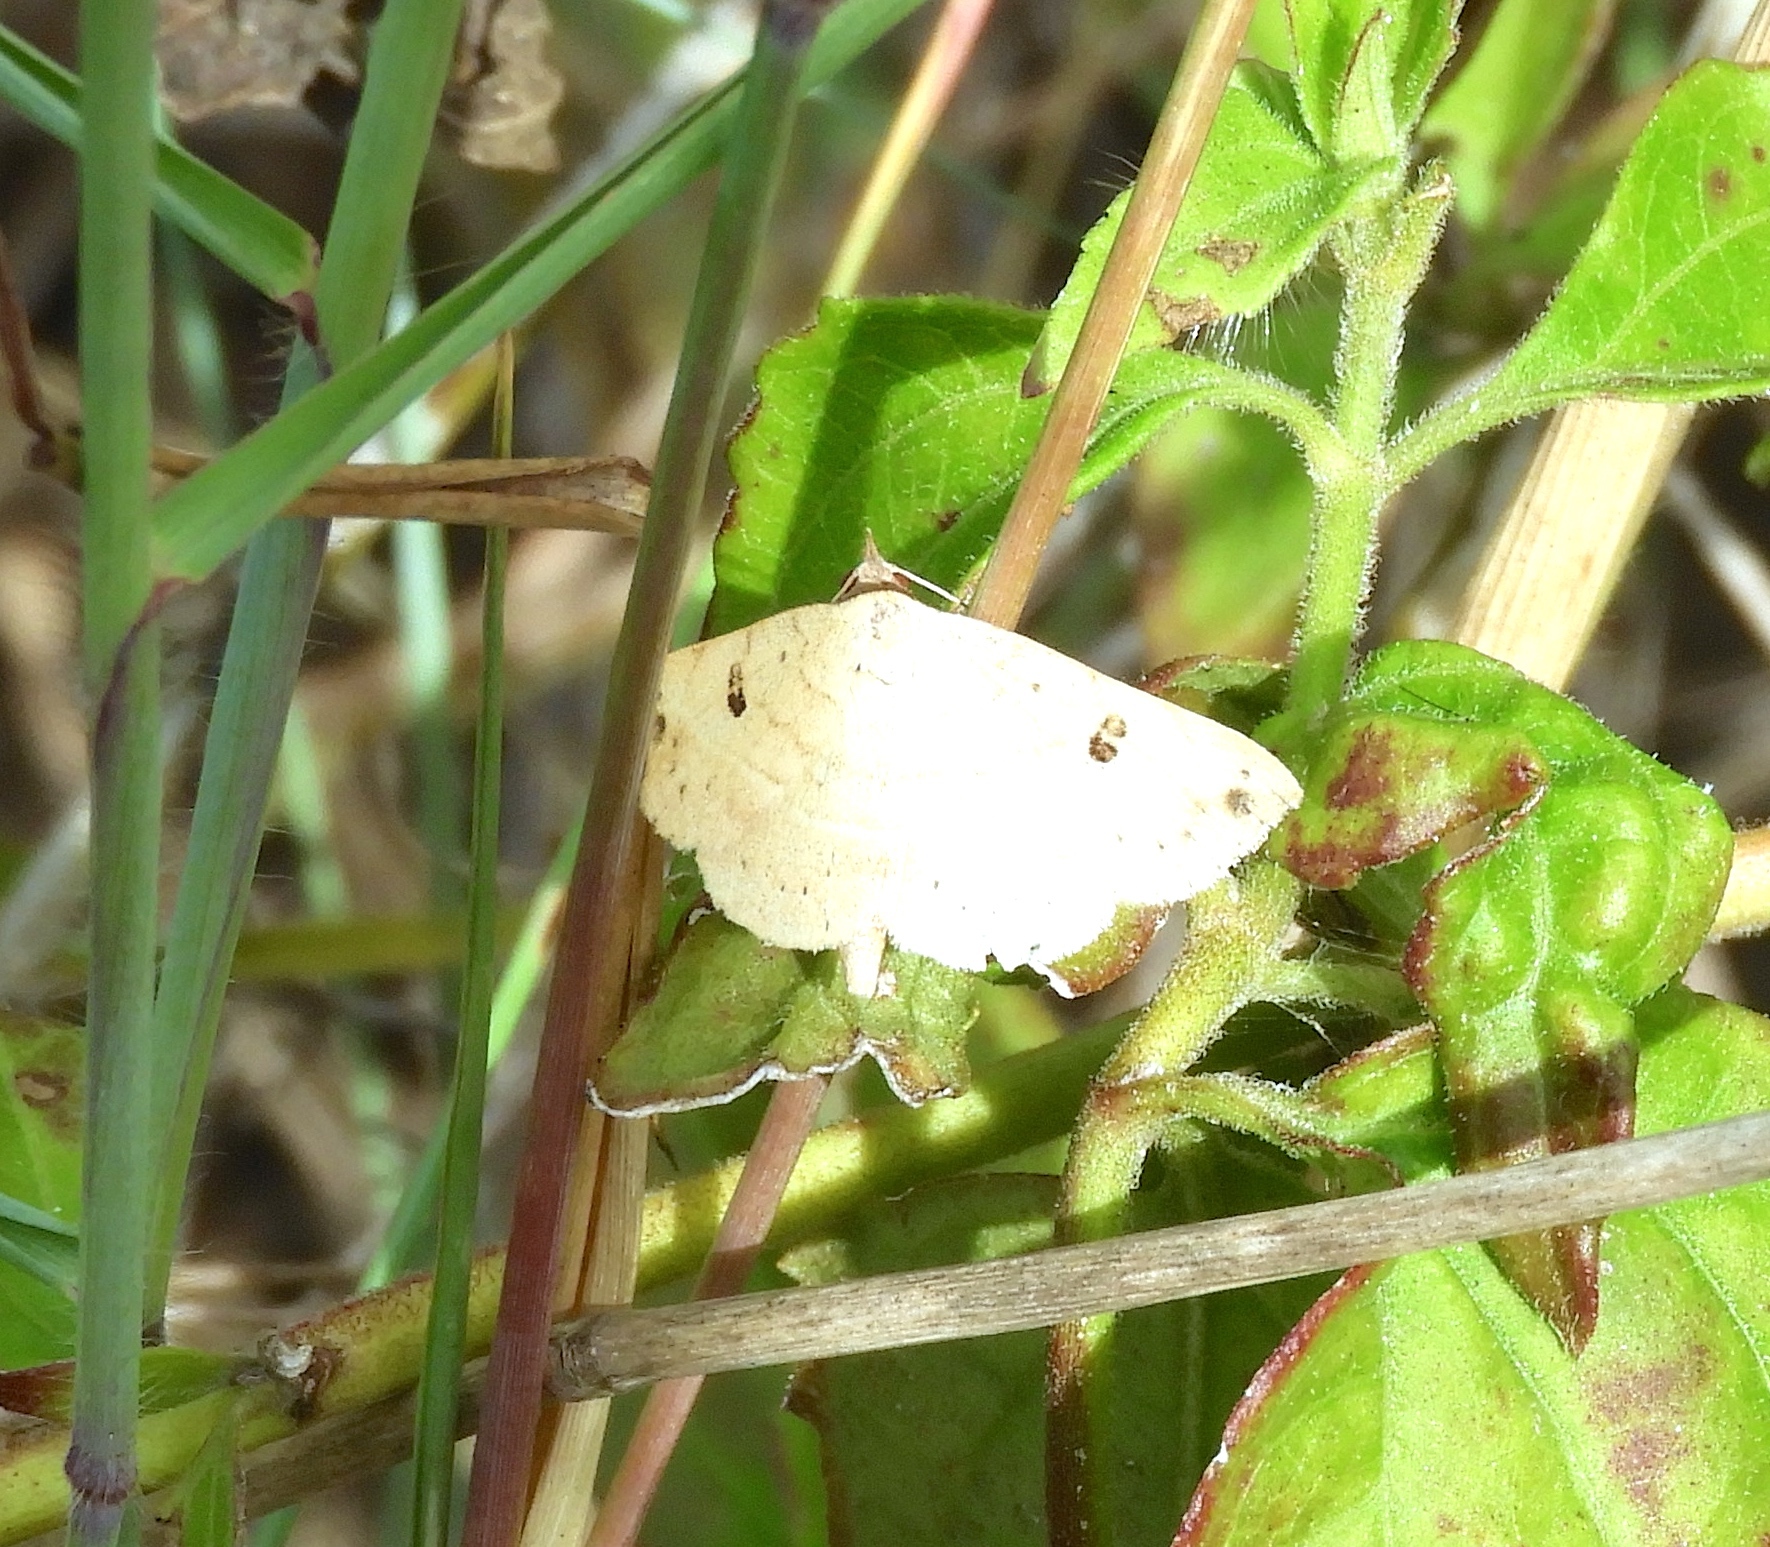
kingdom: Animalia
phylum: Arthropoda
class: Insecta
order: Lepidoptera
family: Erebidae
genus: Hemeroplanis
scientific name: Hemeroplanis
